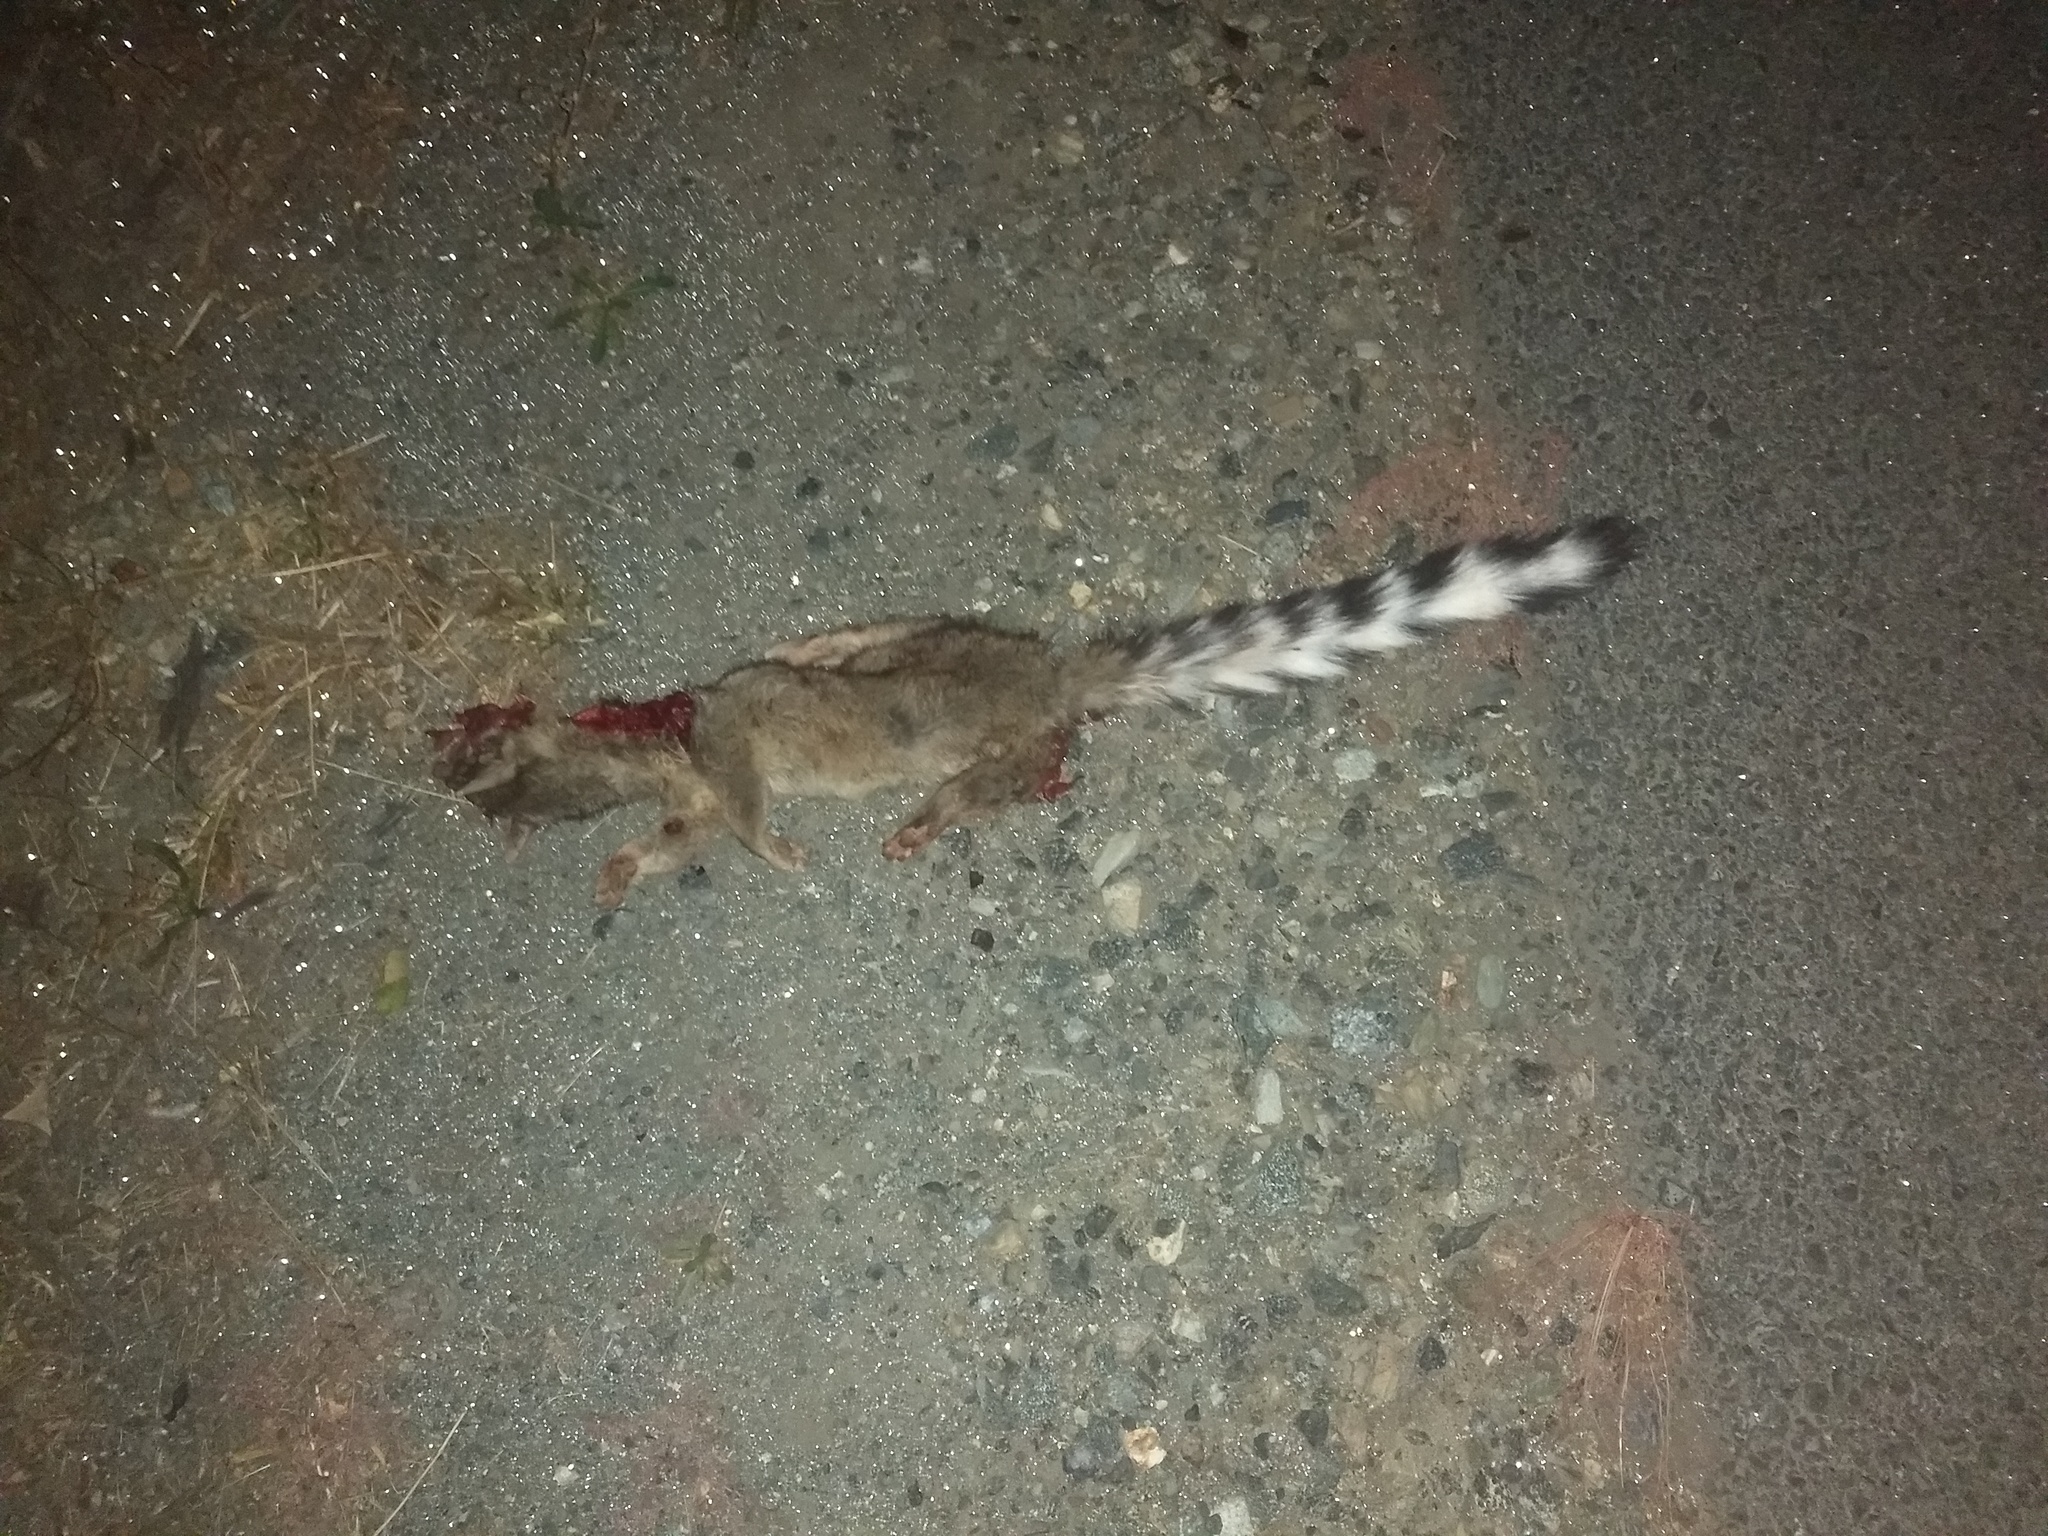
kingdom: Animalia
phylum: Chordata
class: Mammalia
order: Carnivora
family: Procyonidae
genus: Bassariscus
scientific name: Bassariscus astutus
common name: Ringtail
